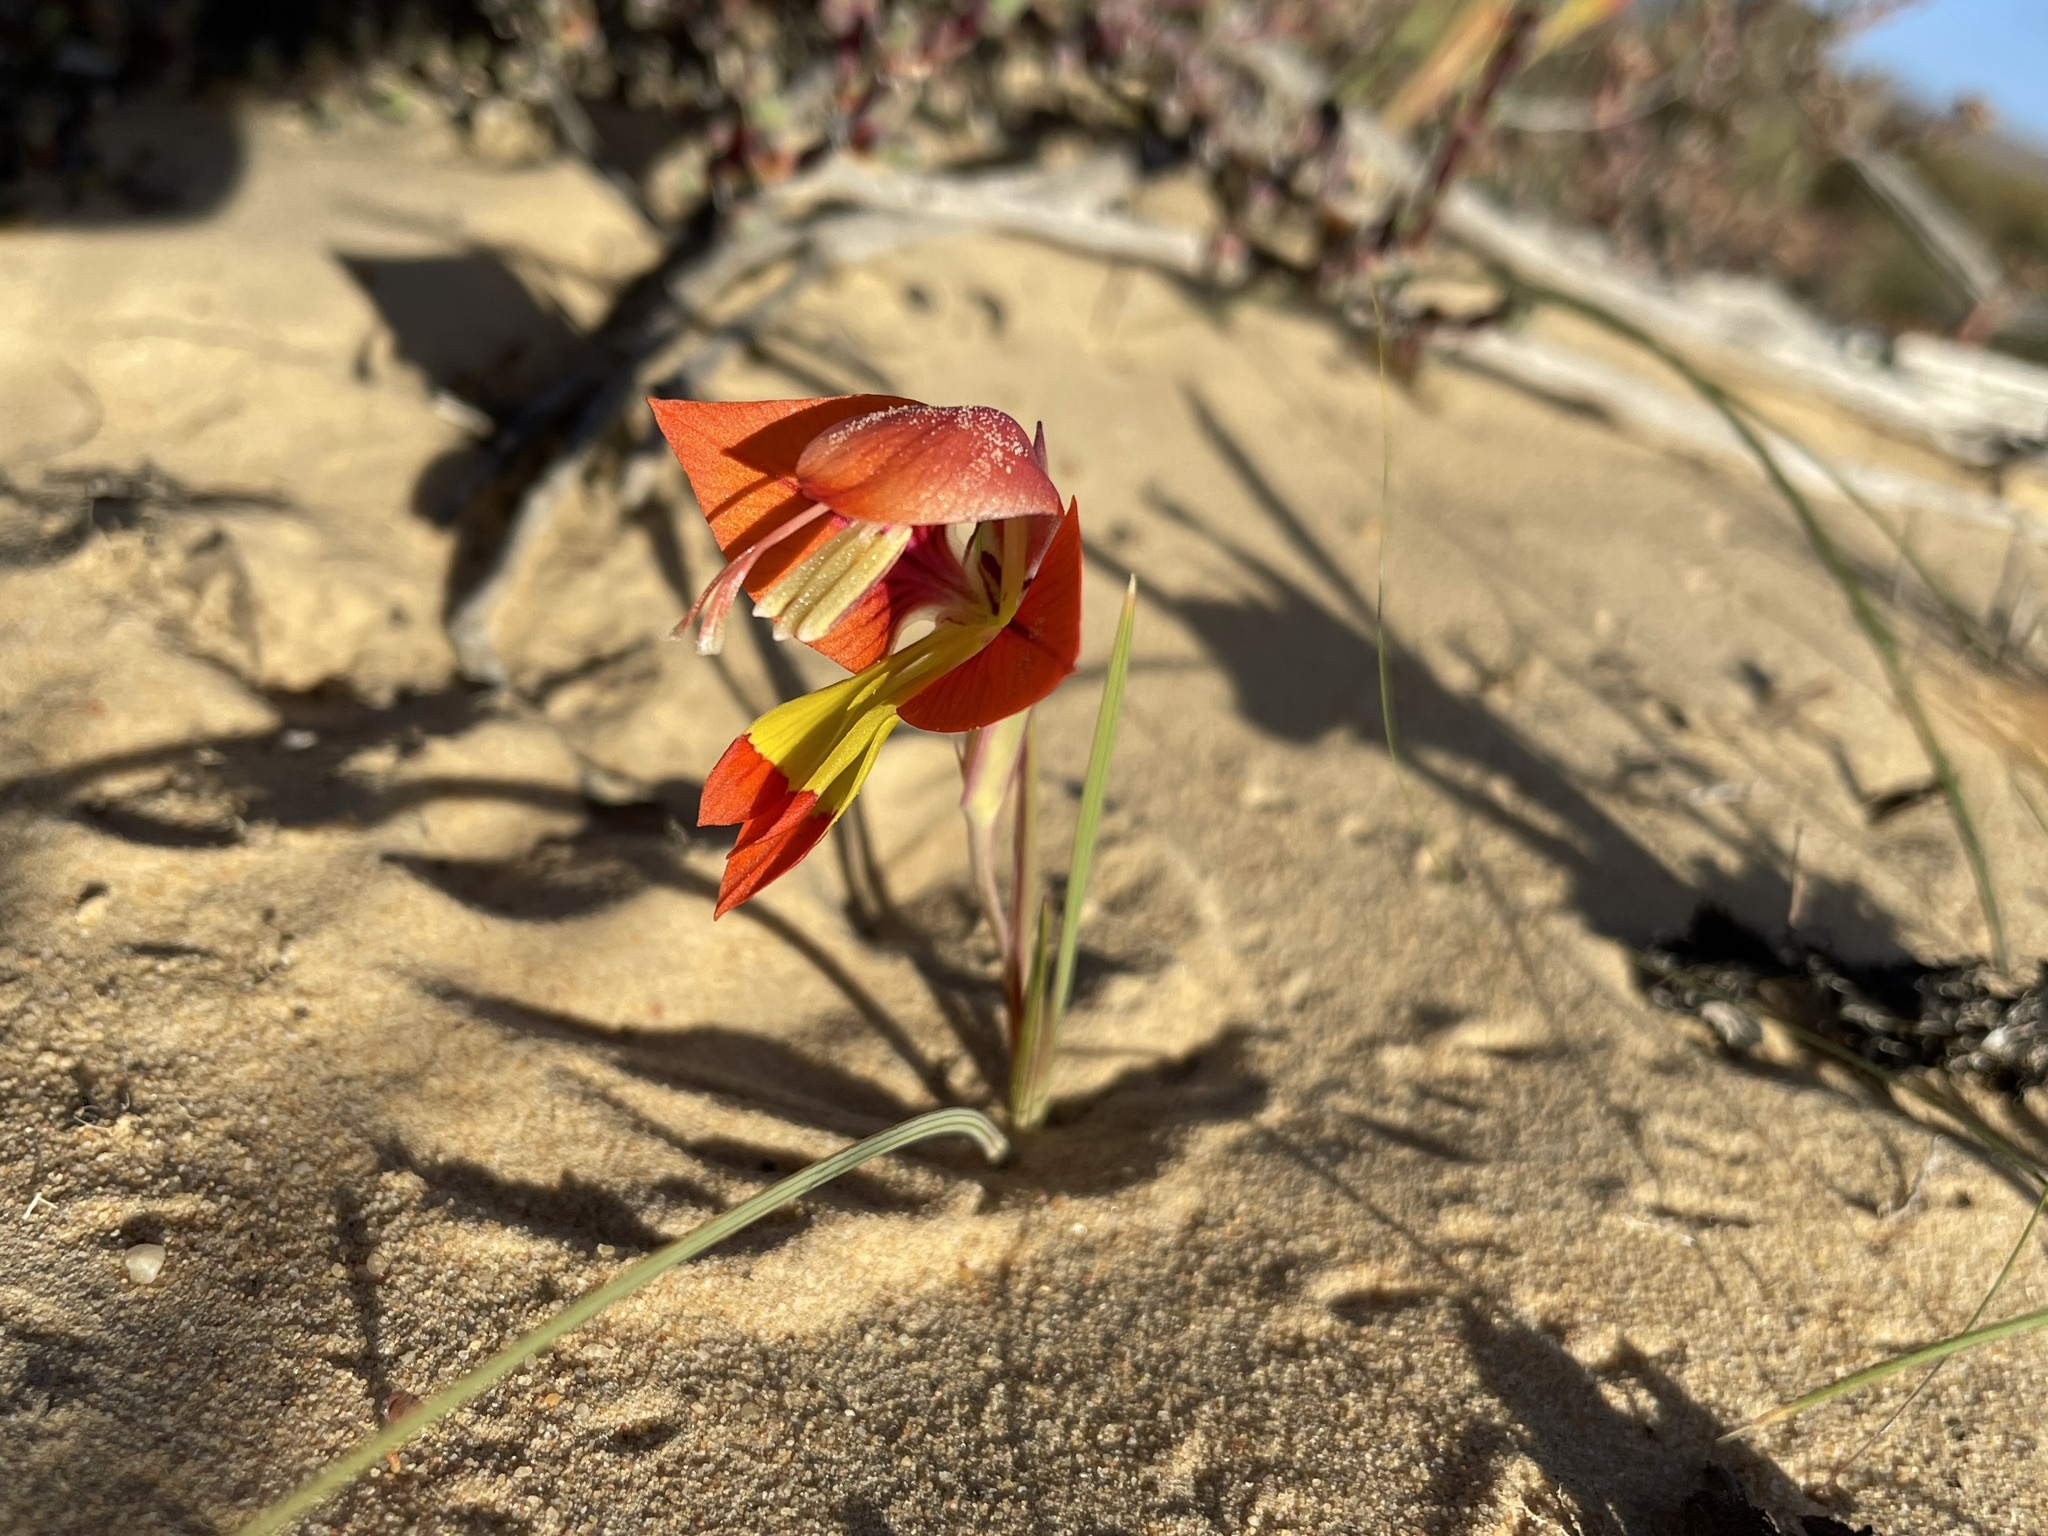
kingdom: Plantae
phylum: Tracheophyta
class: Liliopsida
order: Asparagales
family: Iridaceae
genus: Gladiolus
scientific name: Gladiolus alatus
